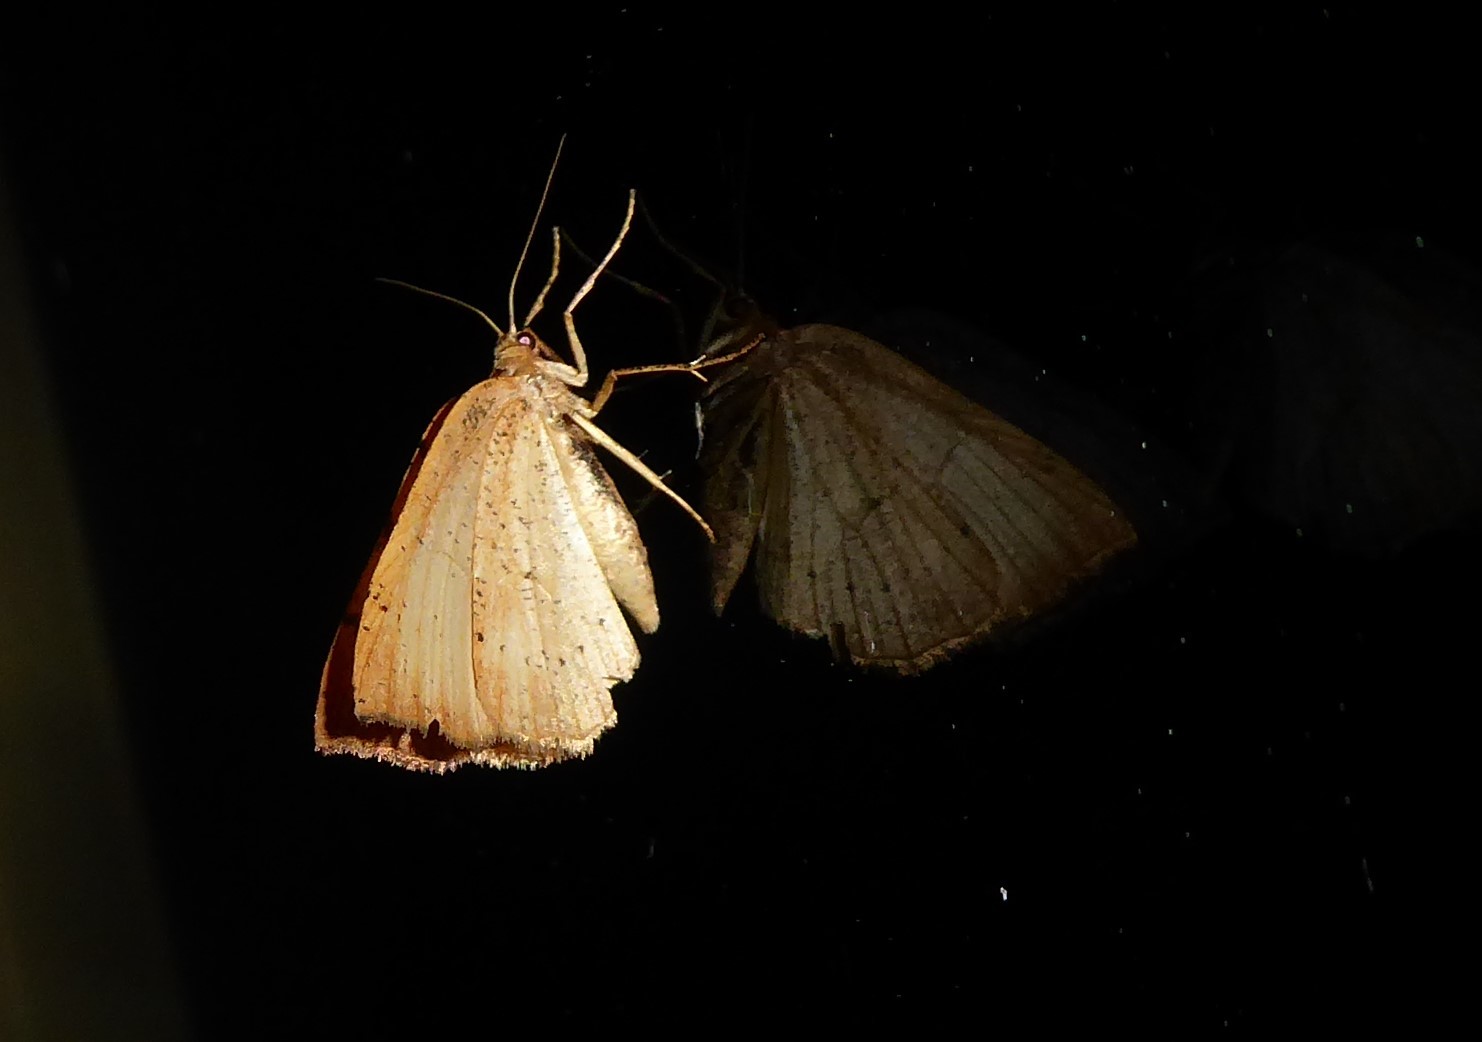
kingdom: Animalia
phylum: Arthropoda
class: Insecta
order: Lepidoptera
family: Geometridae
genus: Sestra
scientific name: Sestra humeraria
